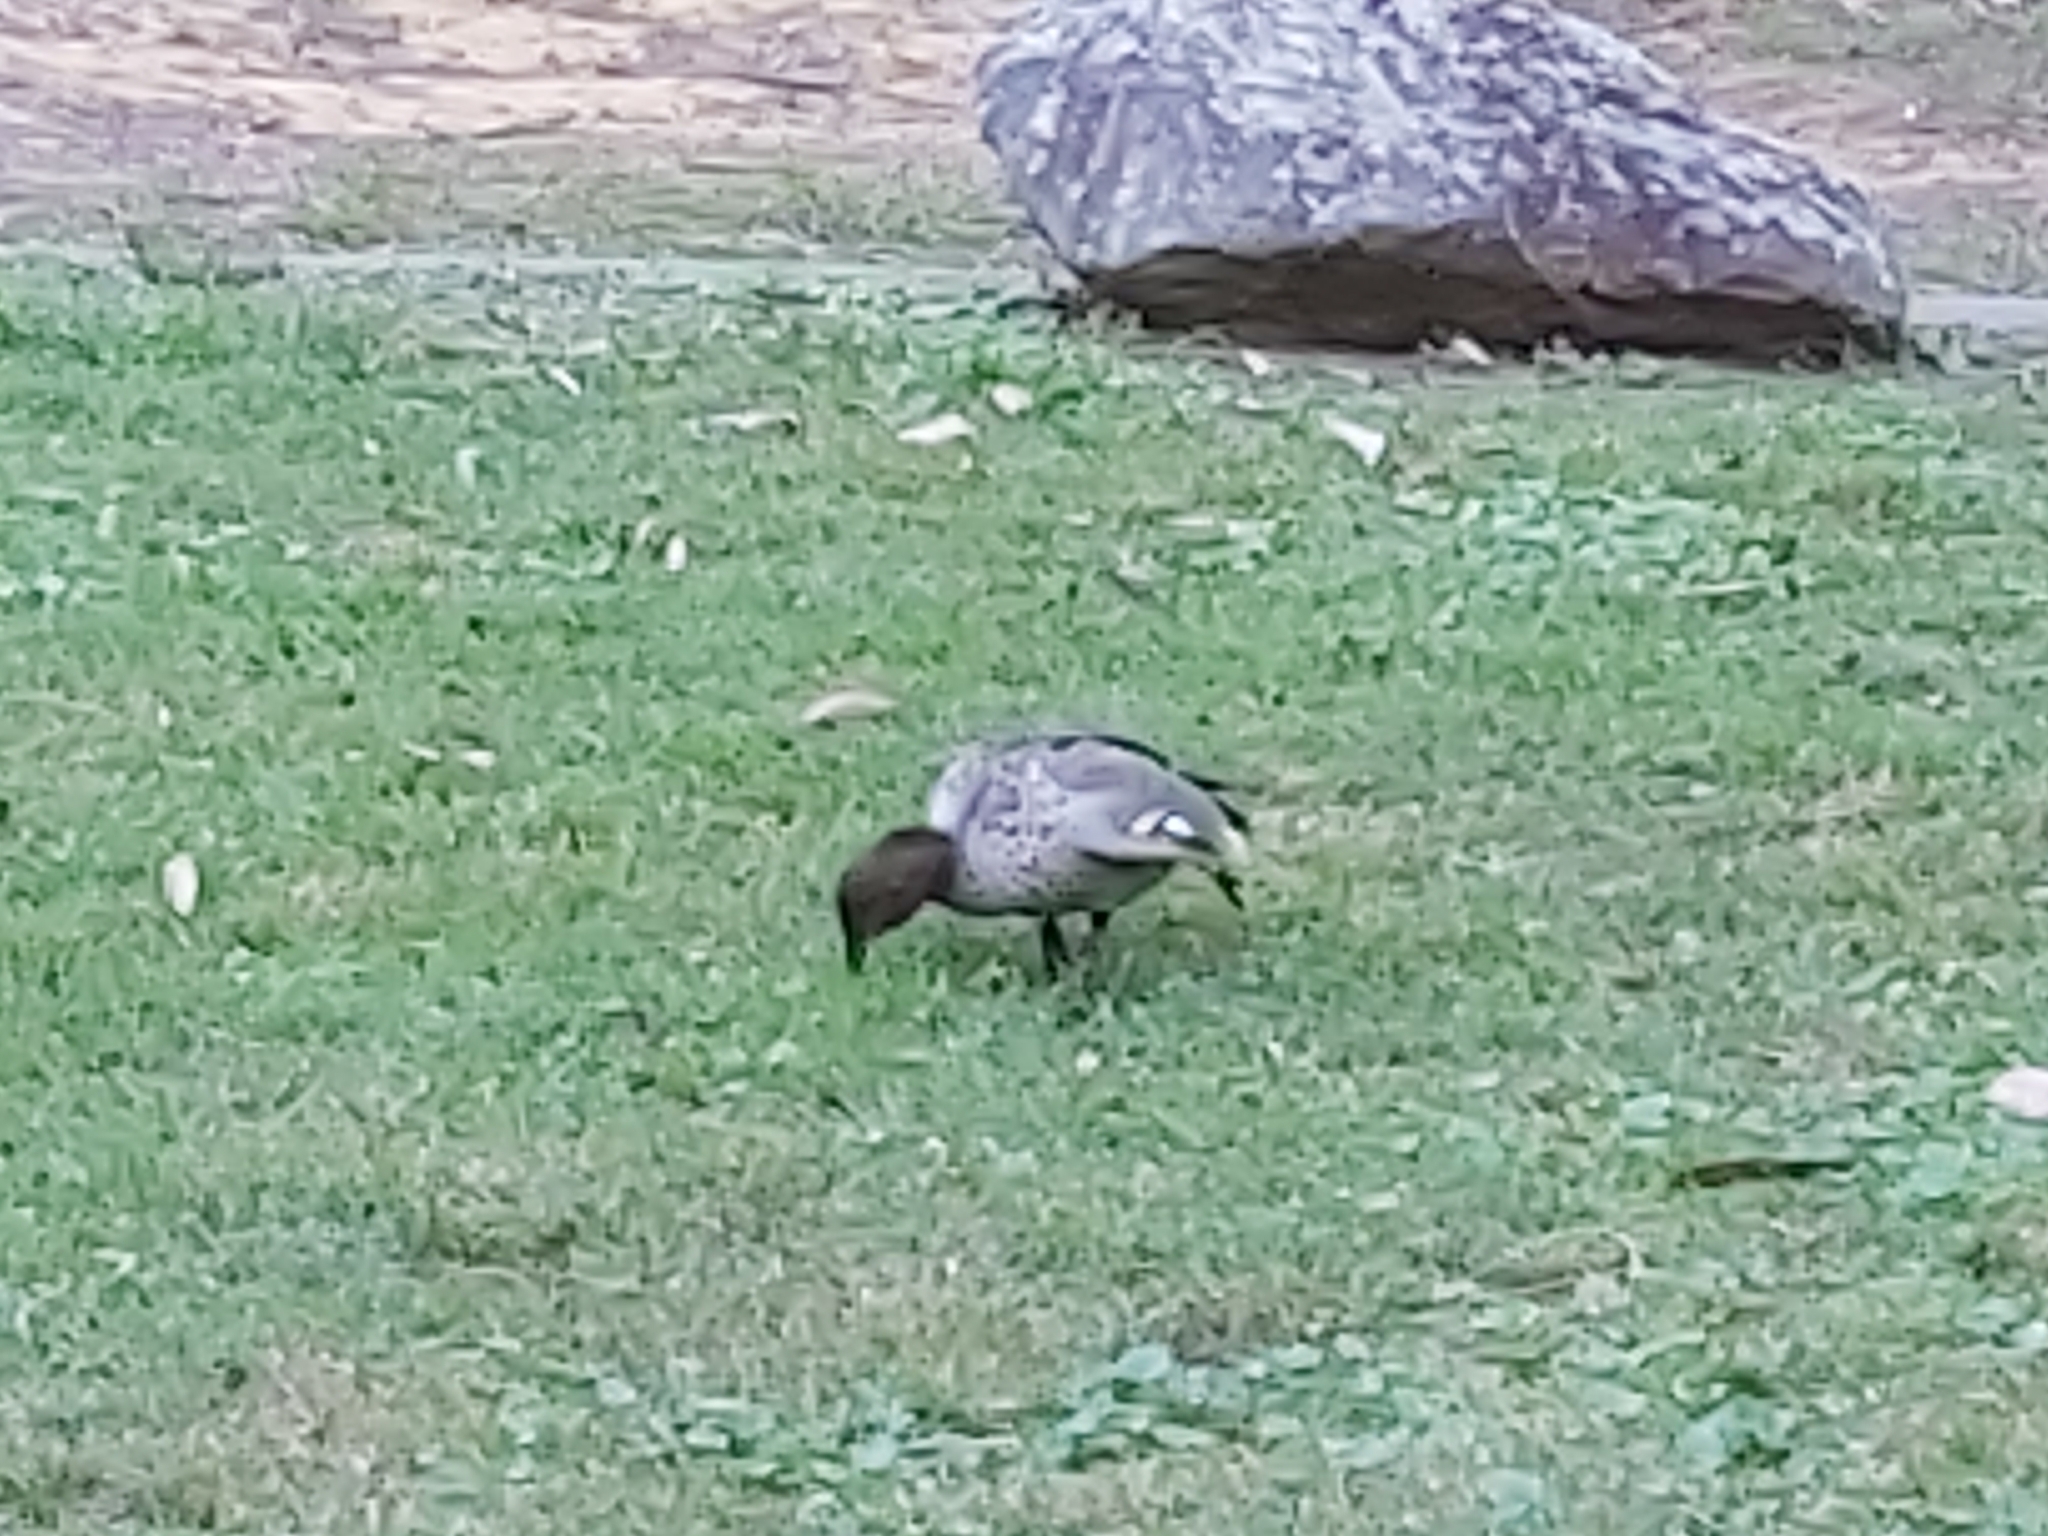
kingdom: Animalia
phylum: Chordata
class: Aves
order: Anseriformes
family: Anatidae
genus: Chenonetta
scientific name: Chenonetta jubata
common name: Maned duck
